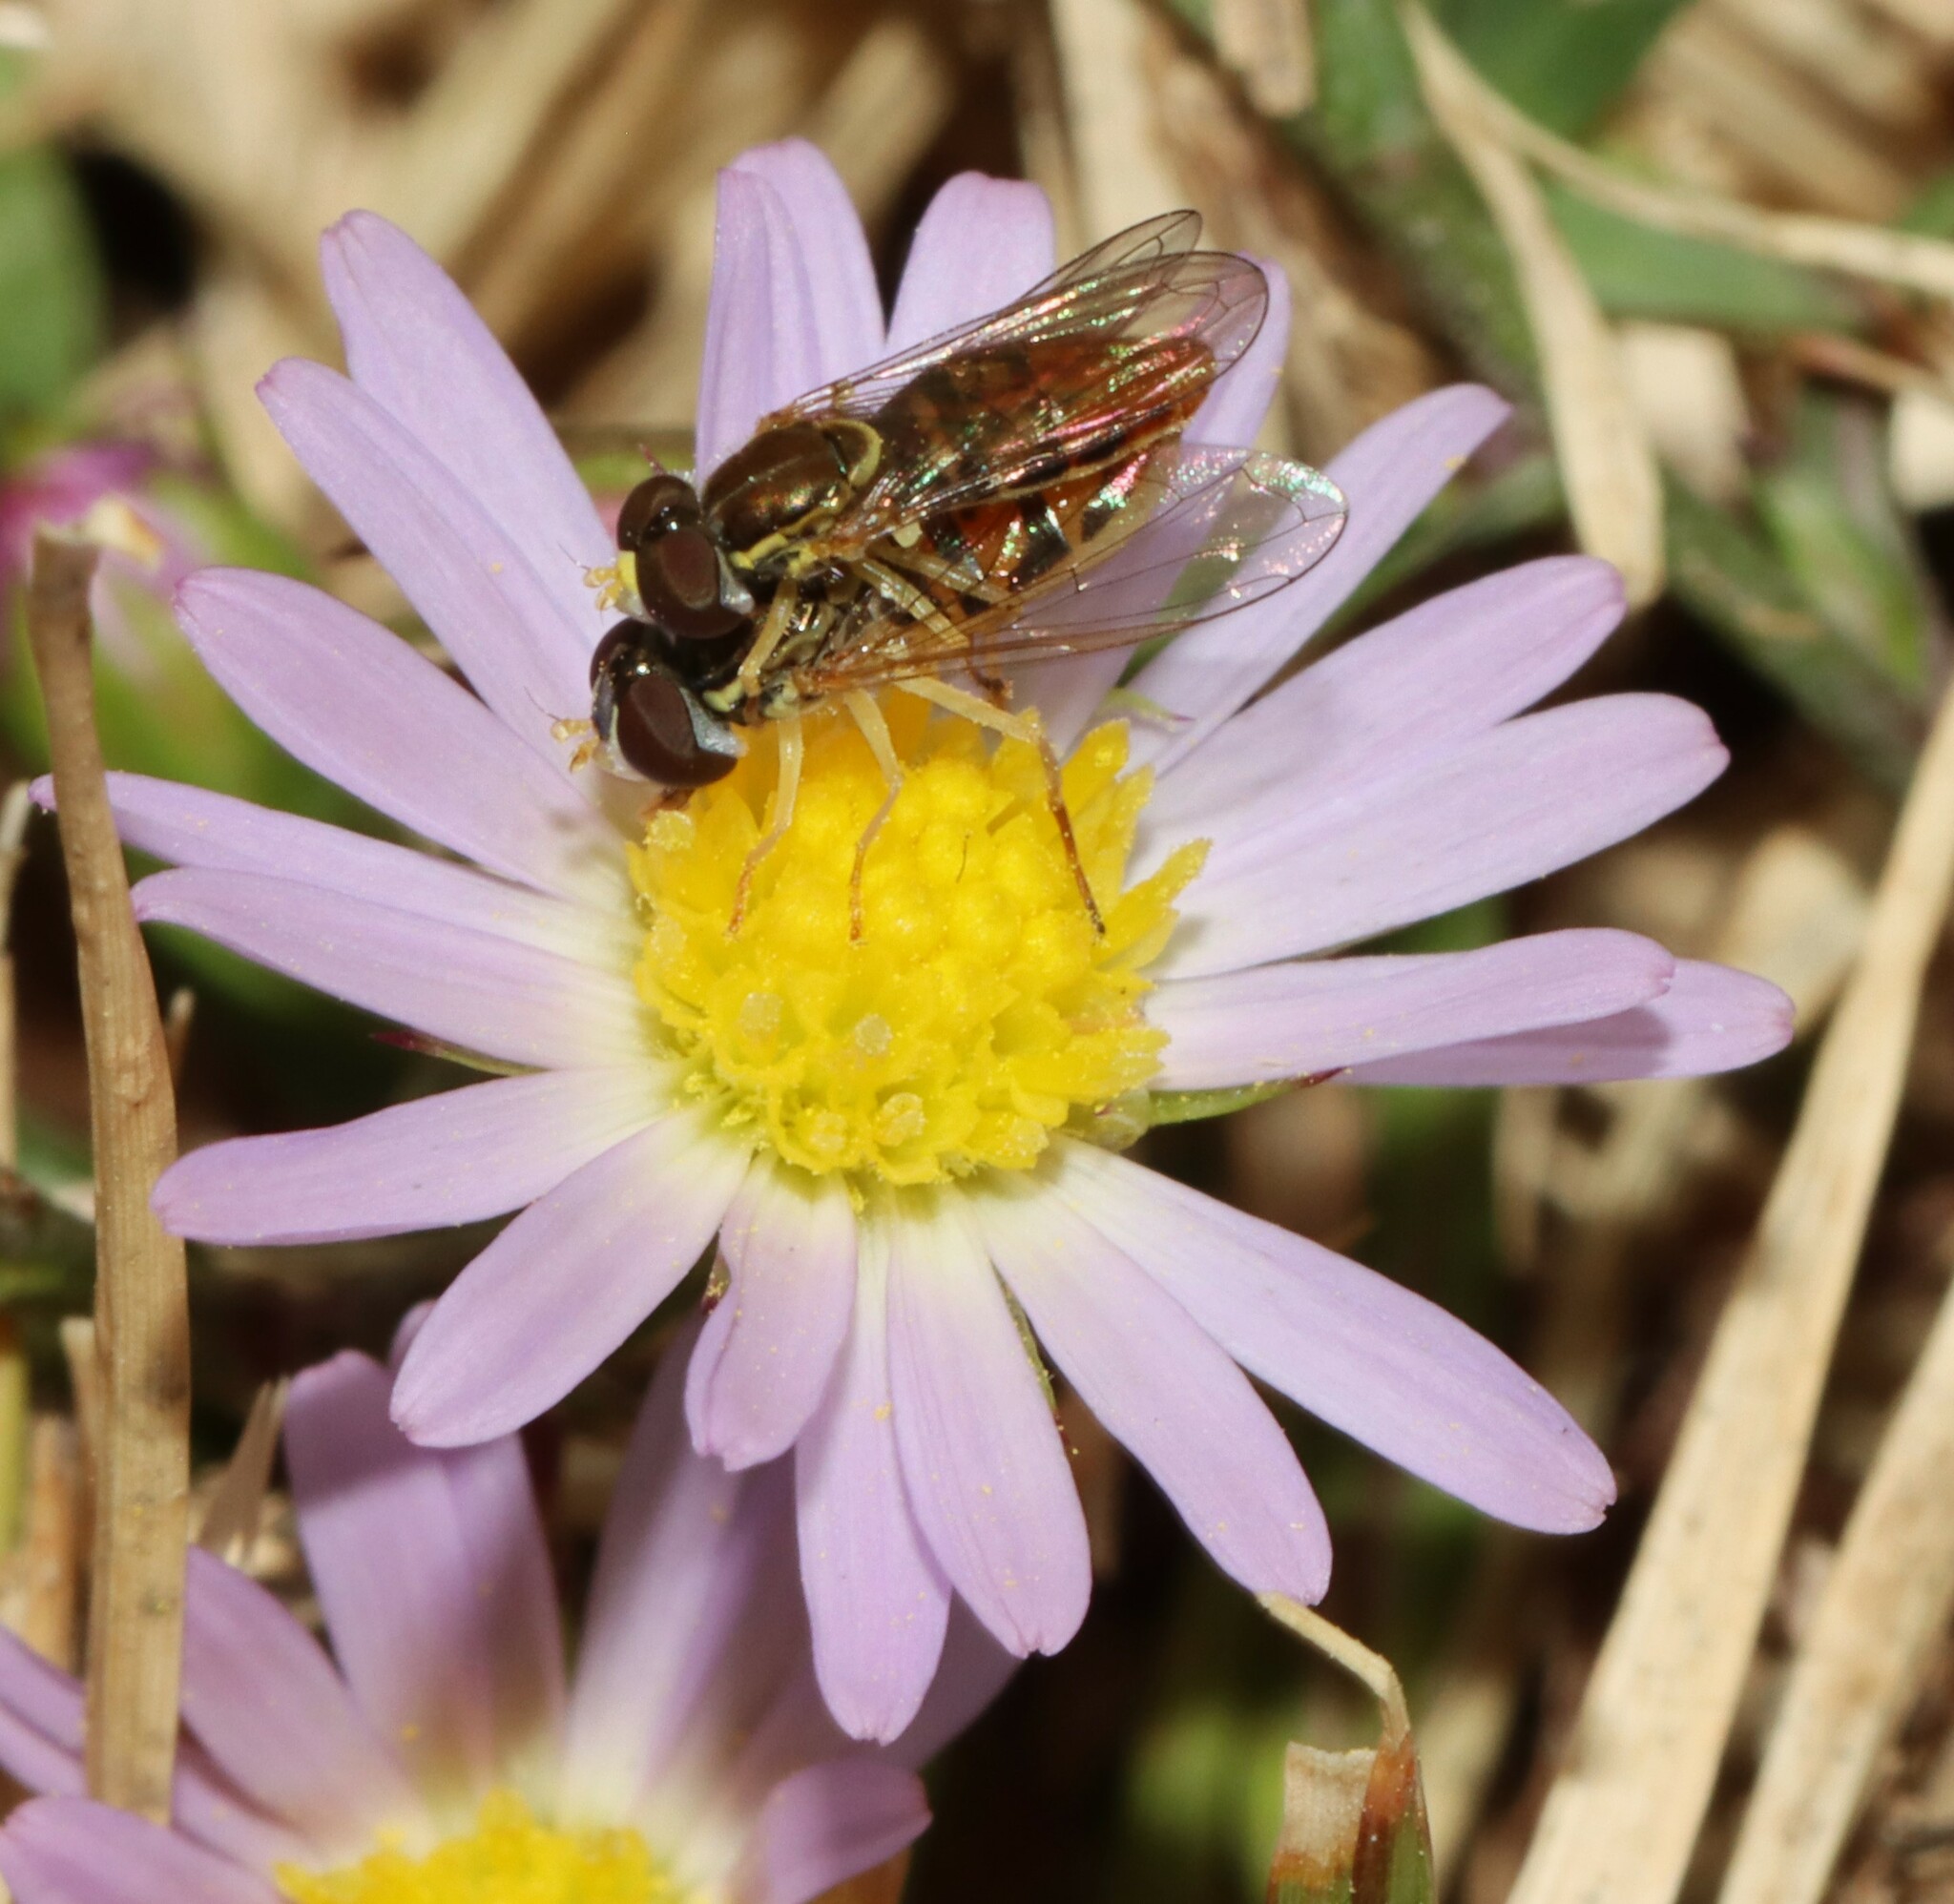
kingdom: Animalia
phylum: Arthropoda
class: Insecta
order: Diptera
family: Syrphidae
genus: Toxomerus
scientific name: Toxomerus marginatus
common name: Syrphid fly
